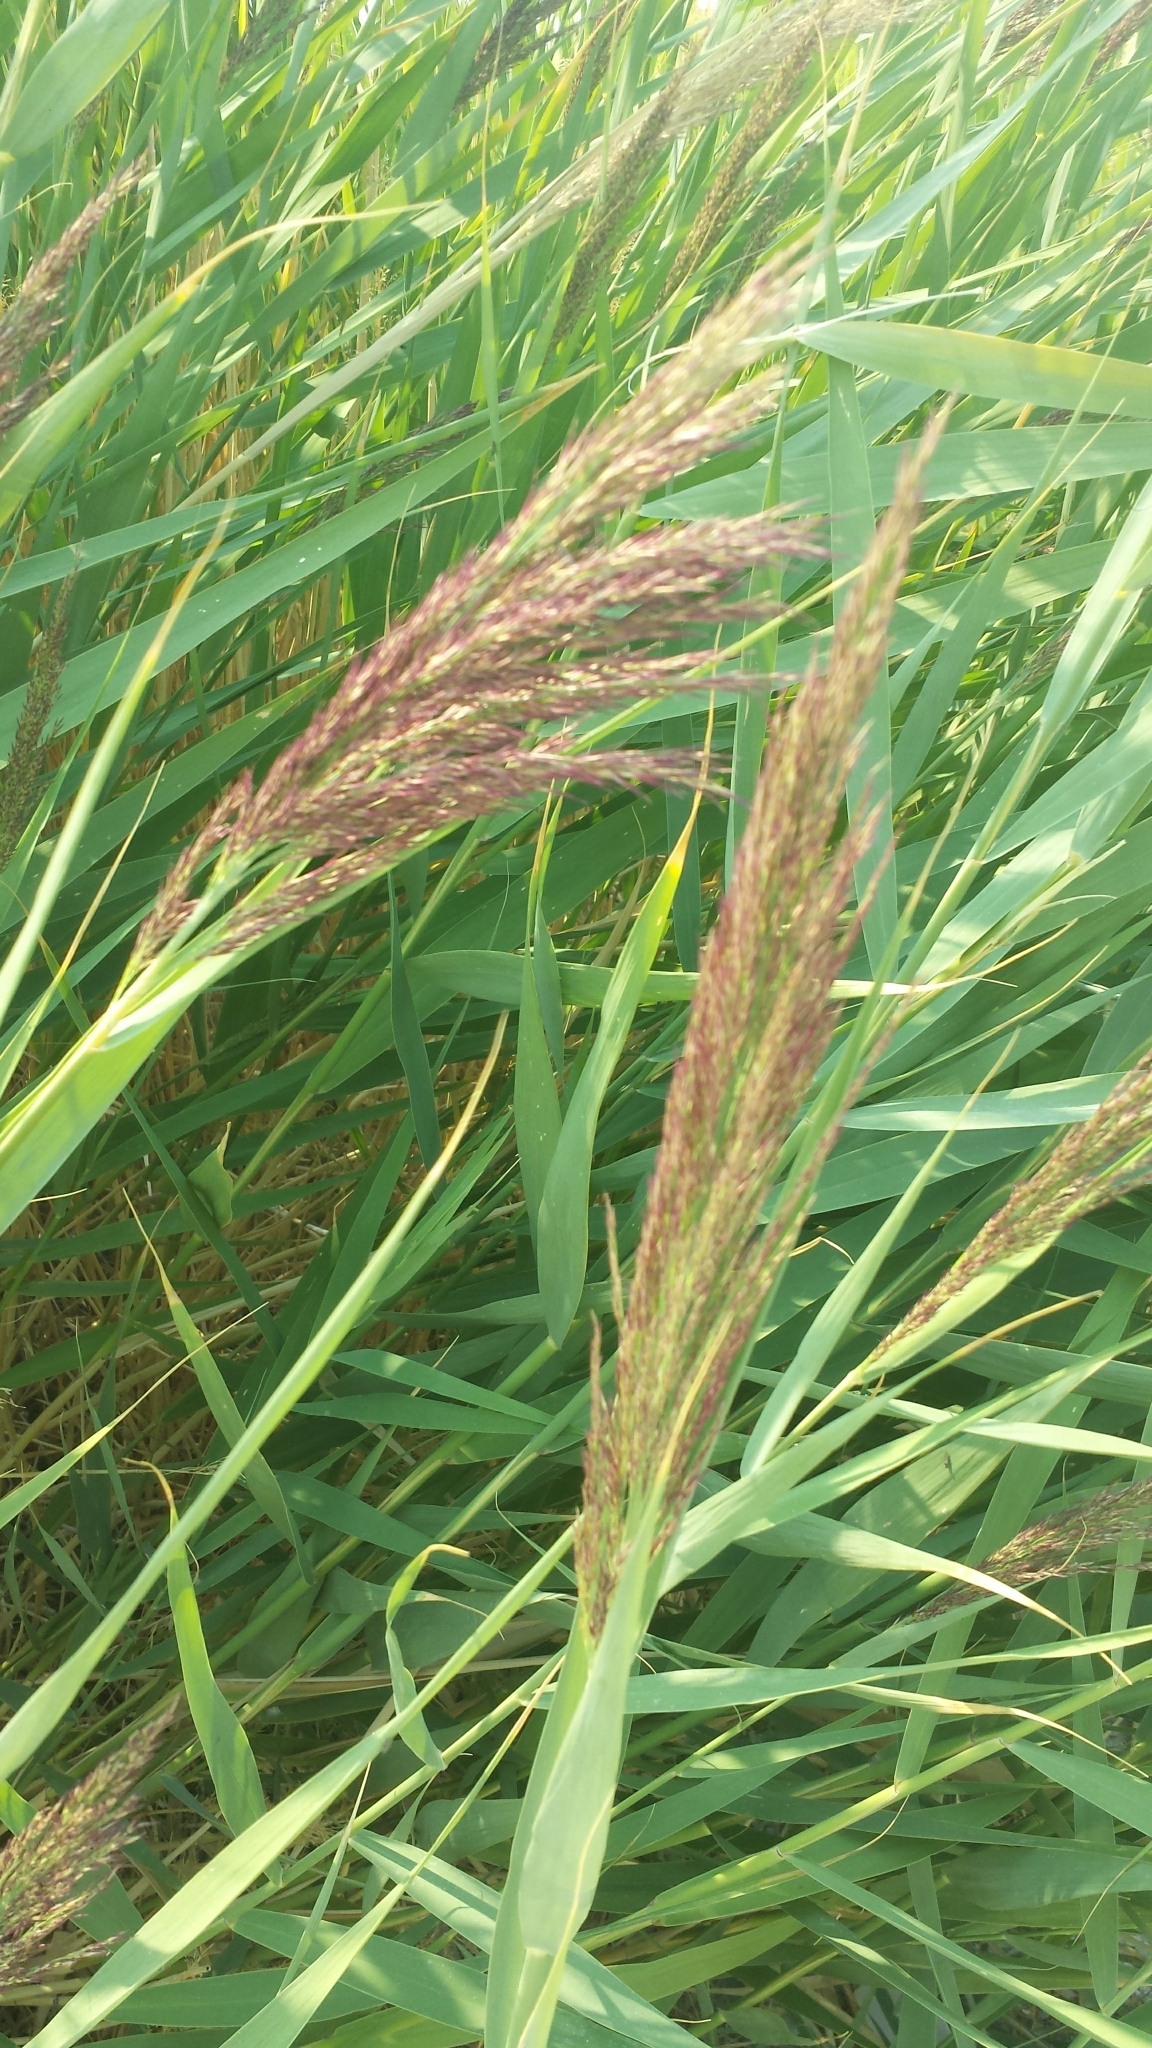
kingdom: Plantae
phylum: Tracheophyta
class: Liliopsida
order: Poales
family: Poaceae
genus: Phragmites
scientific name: Phragmites australis
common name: Common reed
